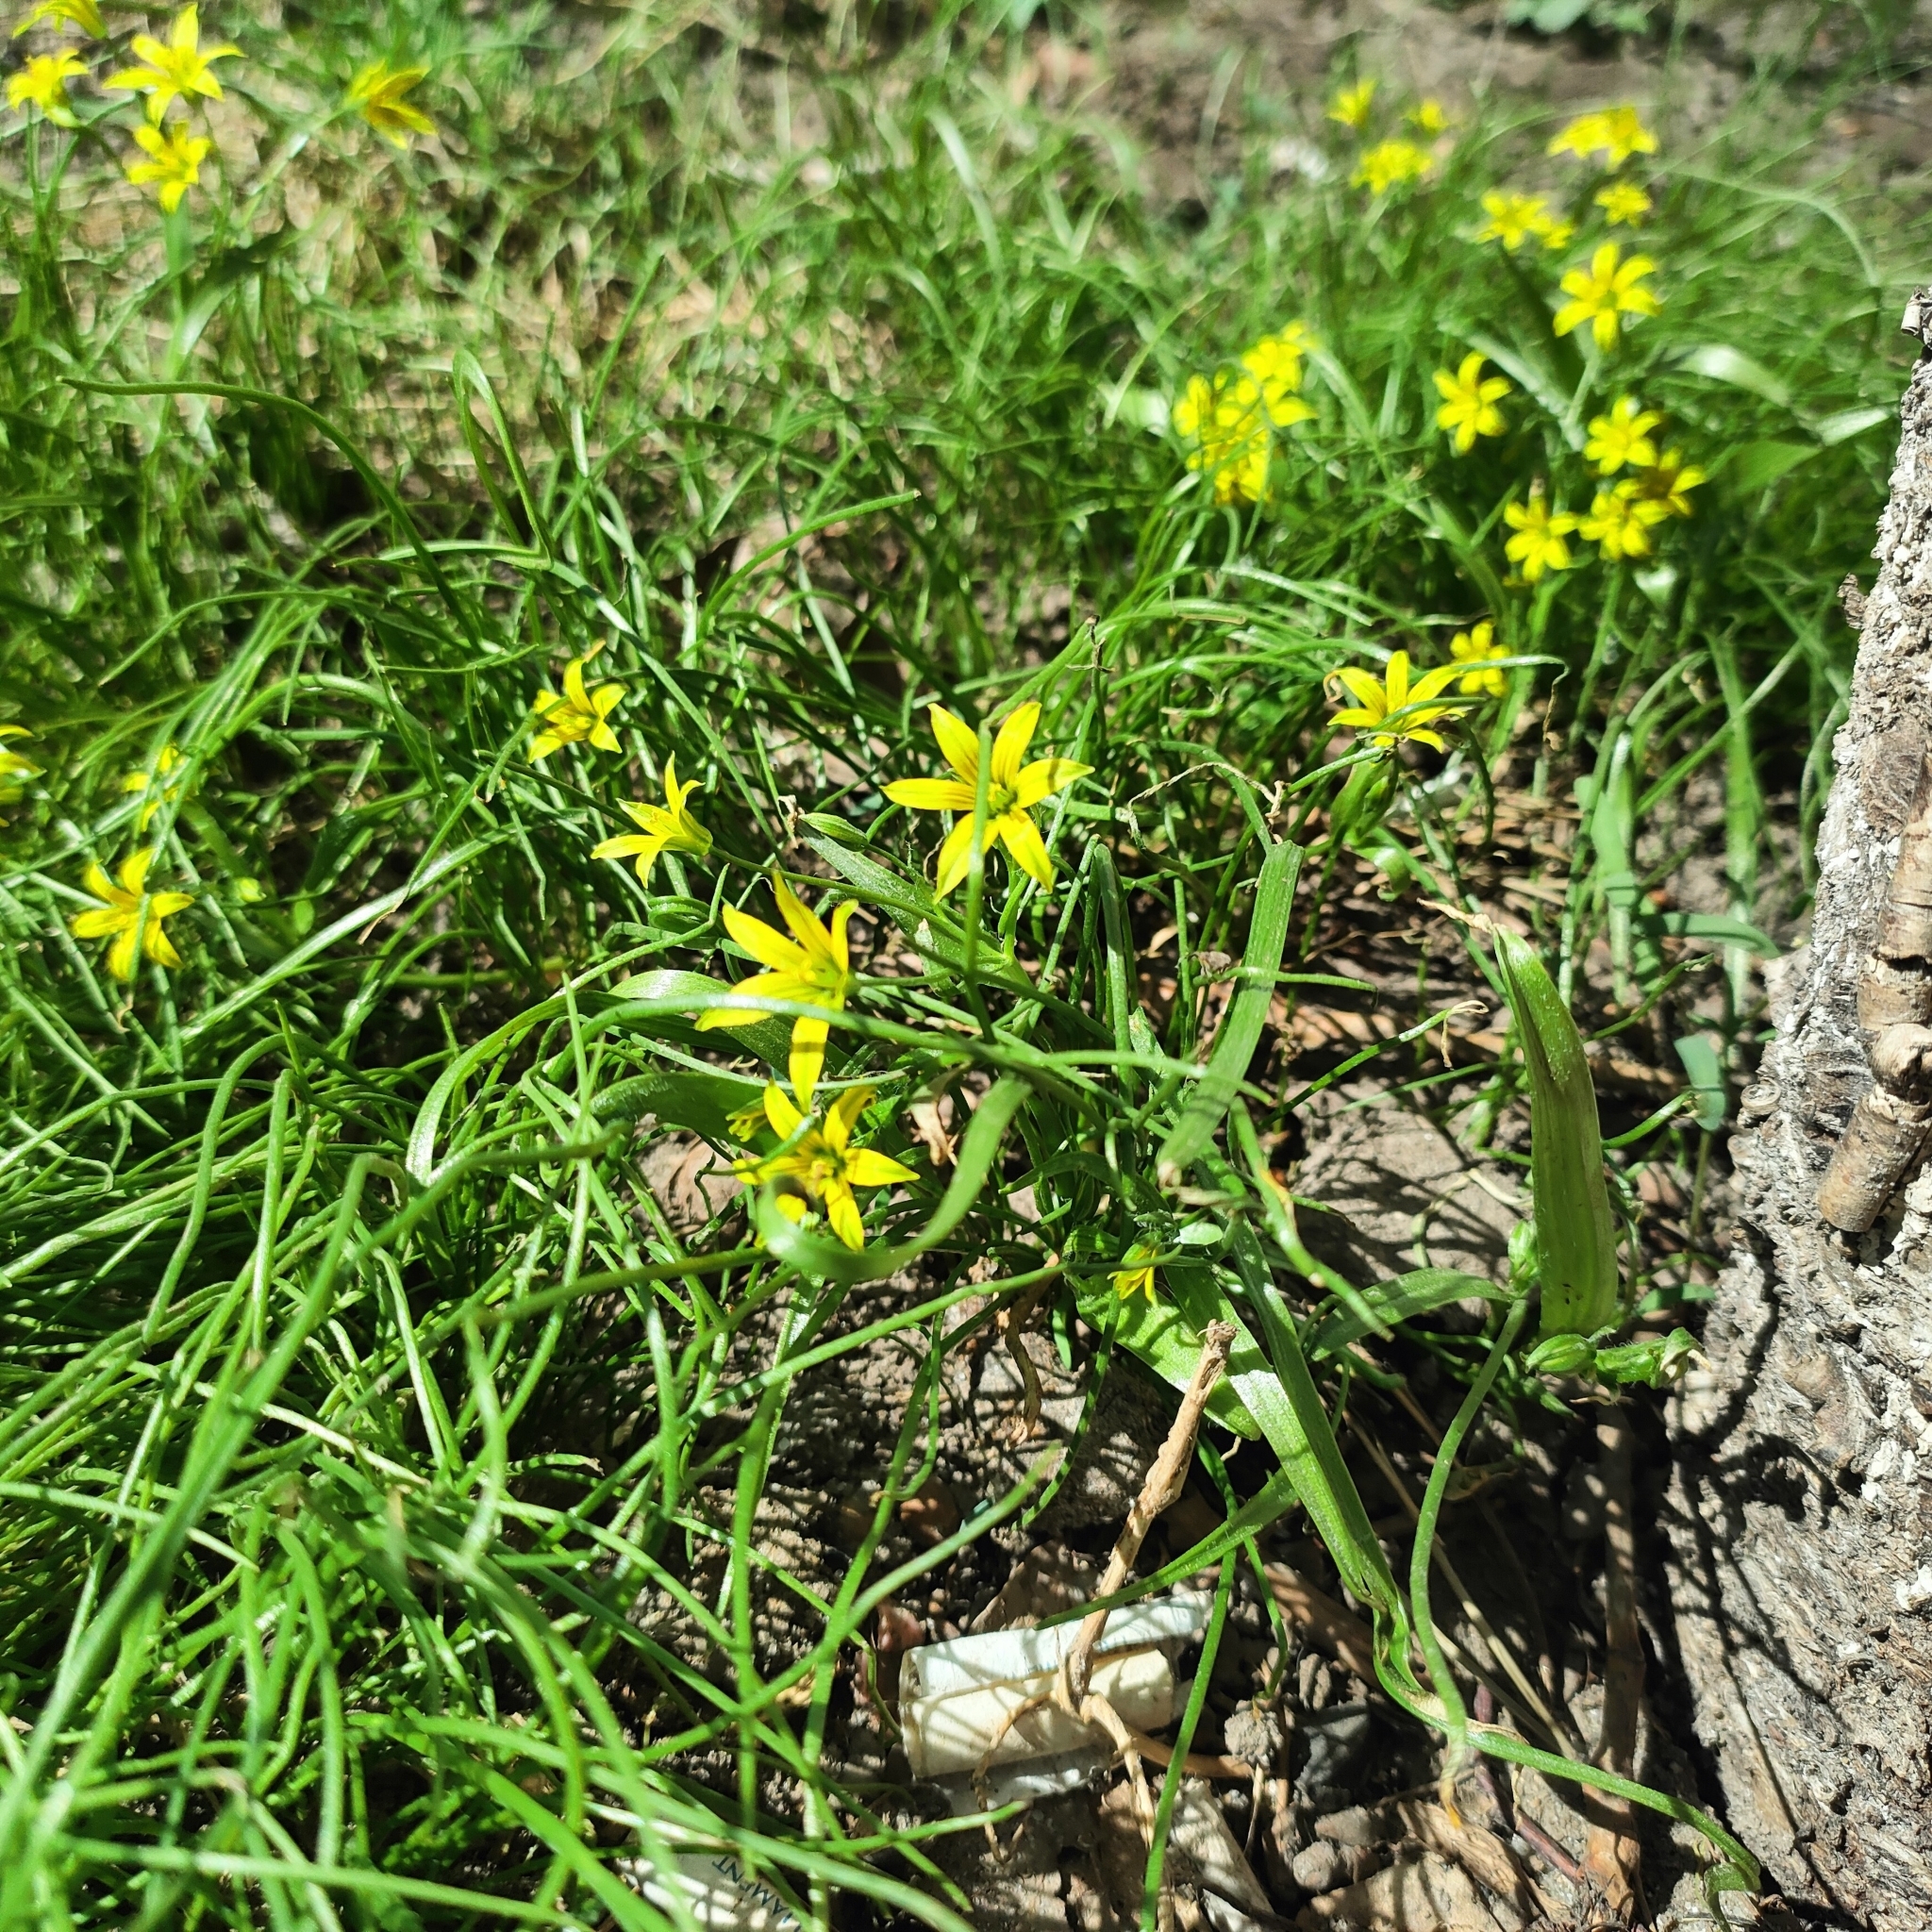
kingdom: Plantae
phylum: Tracheophyta
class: Liliopsida
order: Liliales
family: Liliaceae
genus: Gagea
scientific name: Gagea minima
